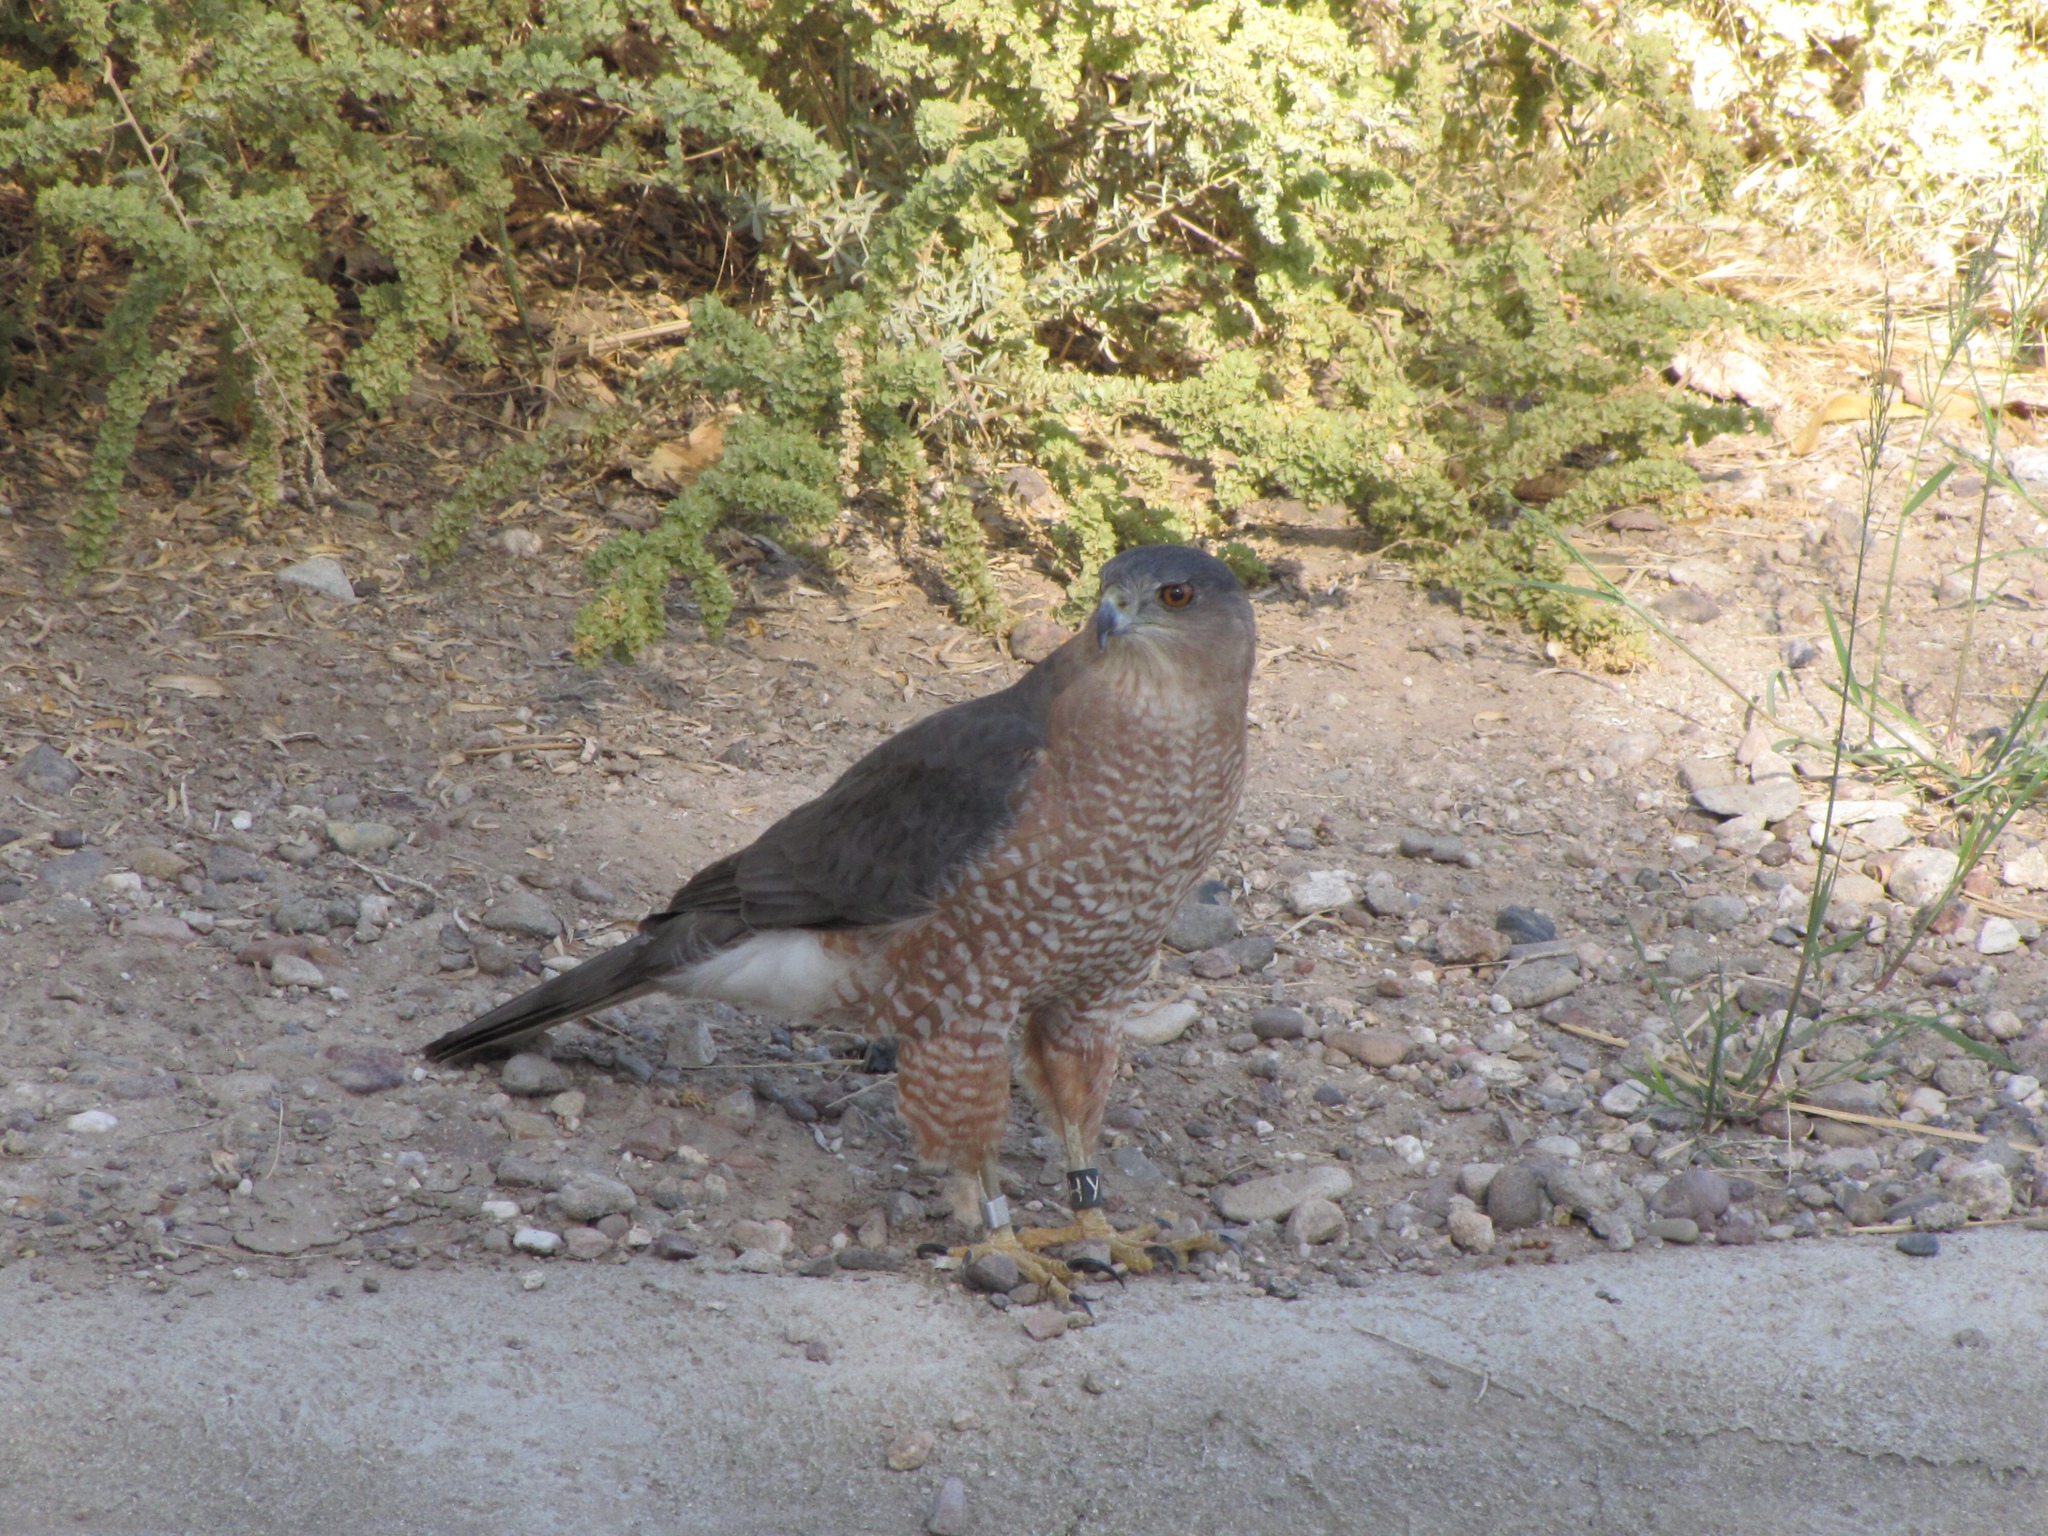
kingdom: Animalia
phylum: Chordata
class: Aves
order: Accipitriformes
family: Accipitridae
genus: Accipiter
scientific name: Accipiter cooperii
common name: Cooper's hawk
